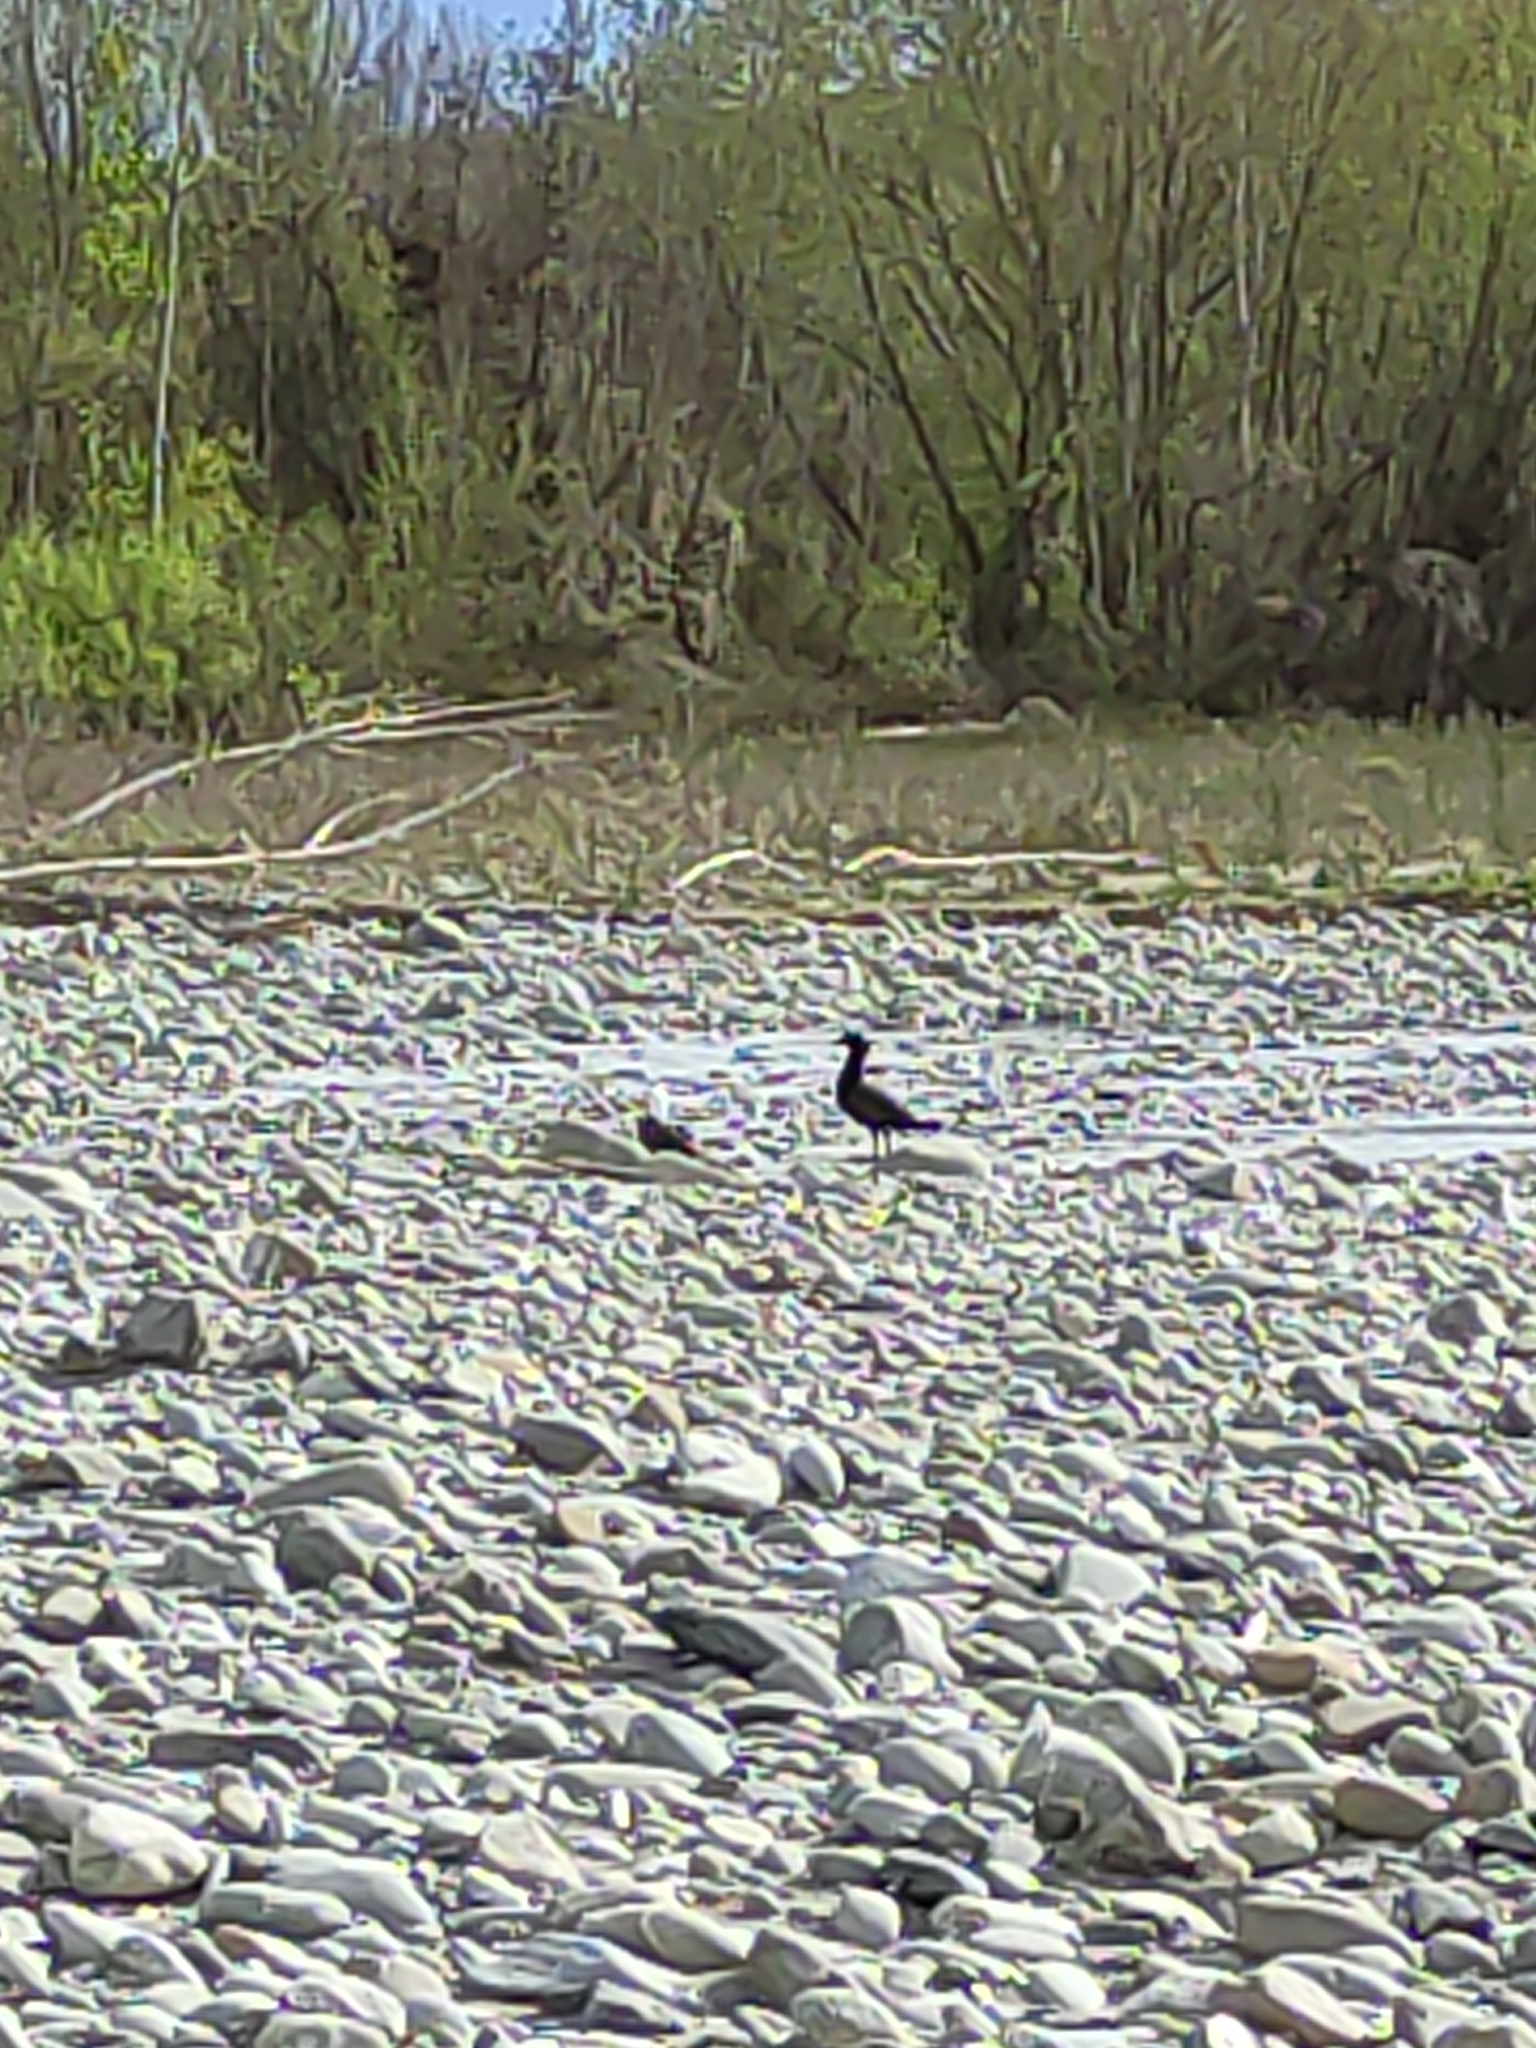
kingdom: Animalia
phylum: Chordata
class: Aves
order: Anseriformes
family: Anatidae
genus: Tadorna
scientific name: Tadorna variegata
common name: Paradise shelduck
